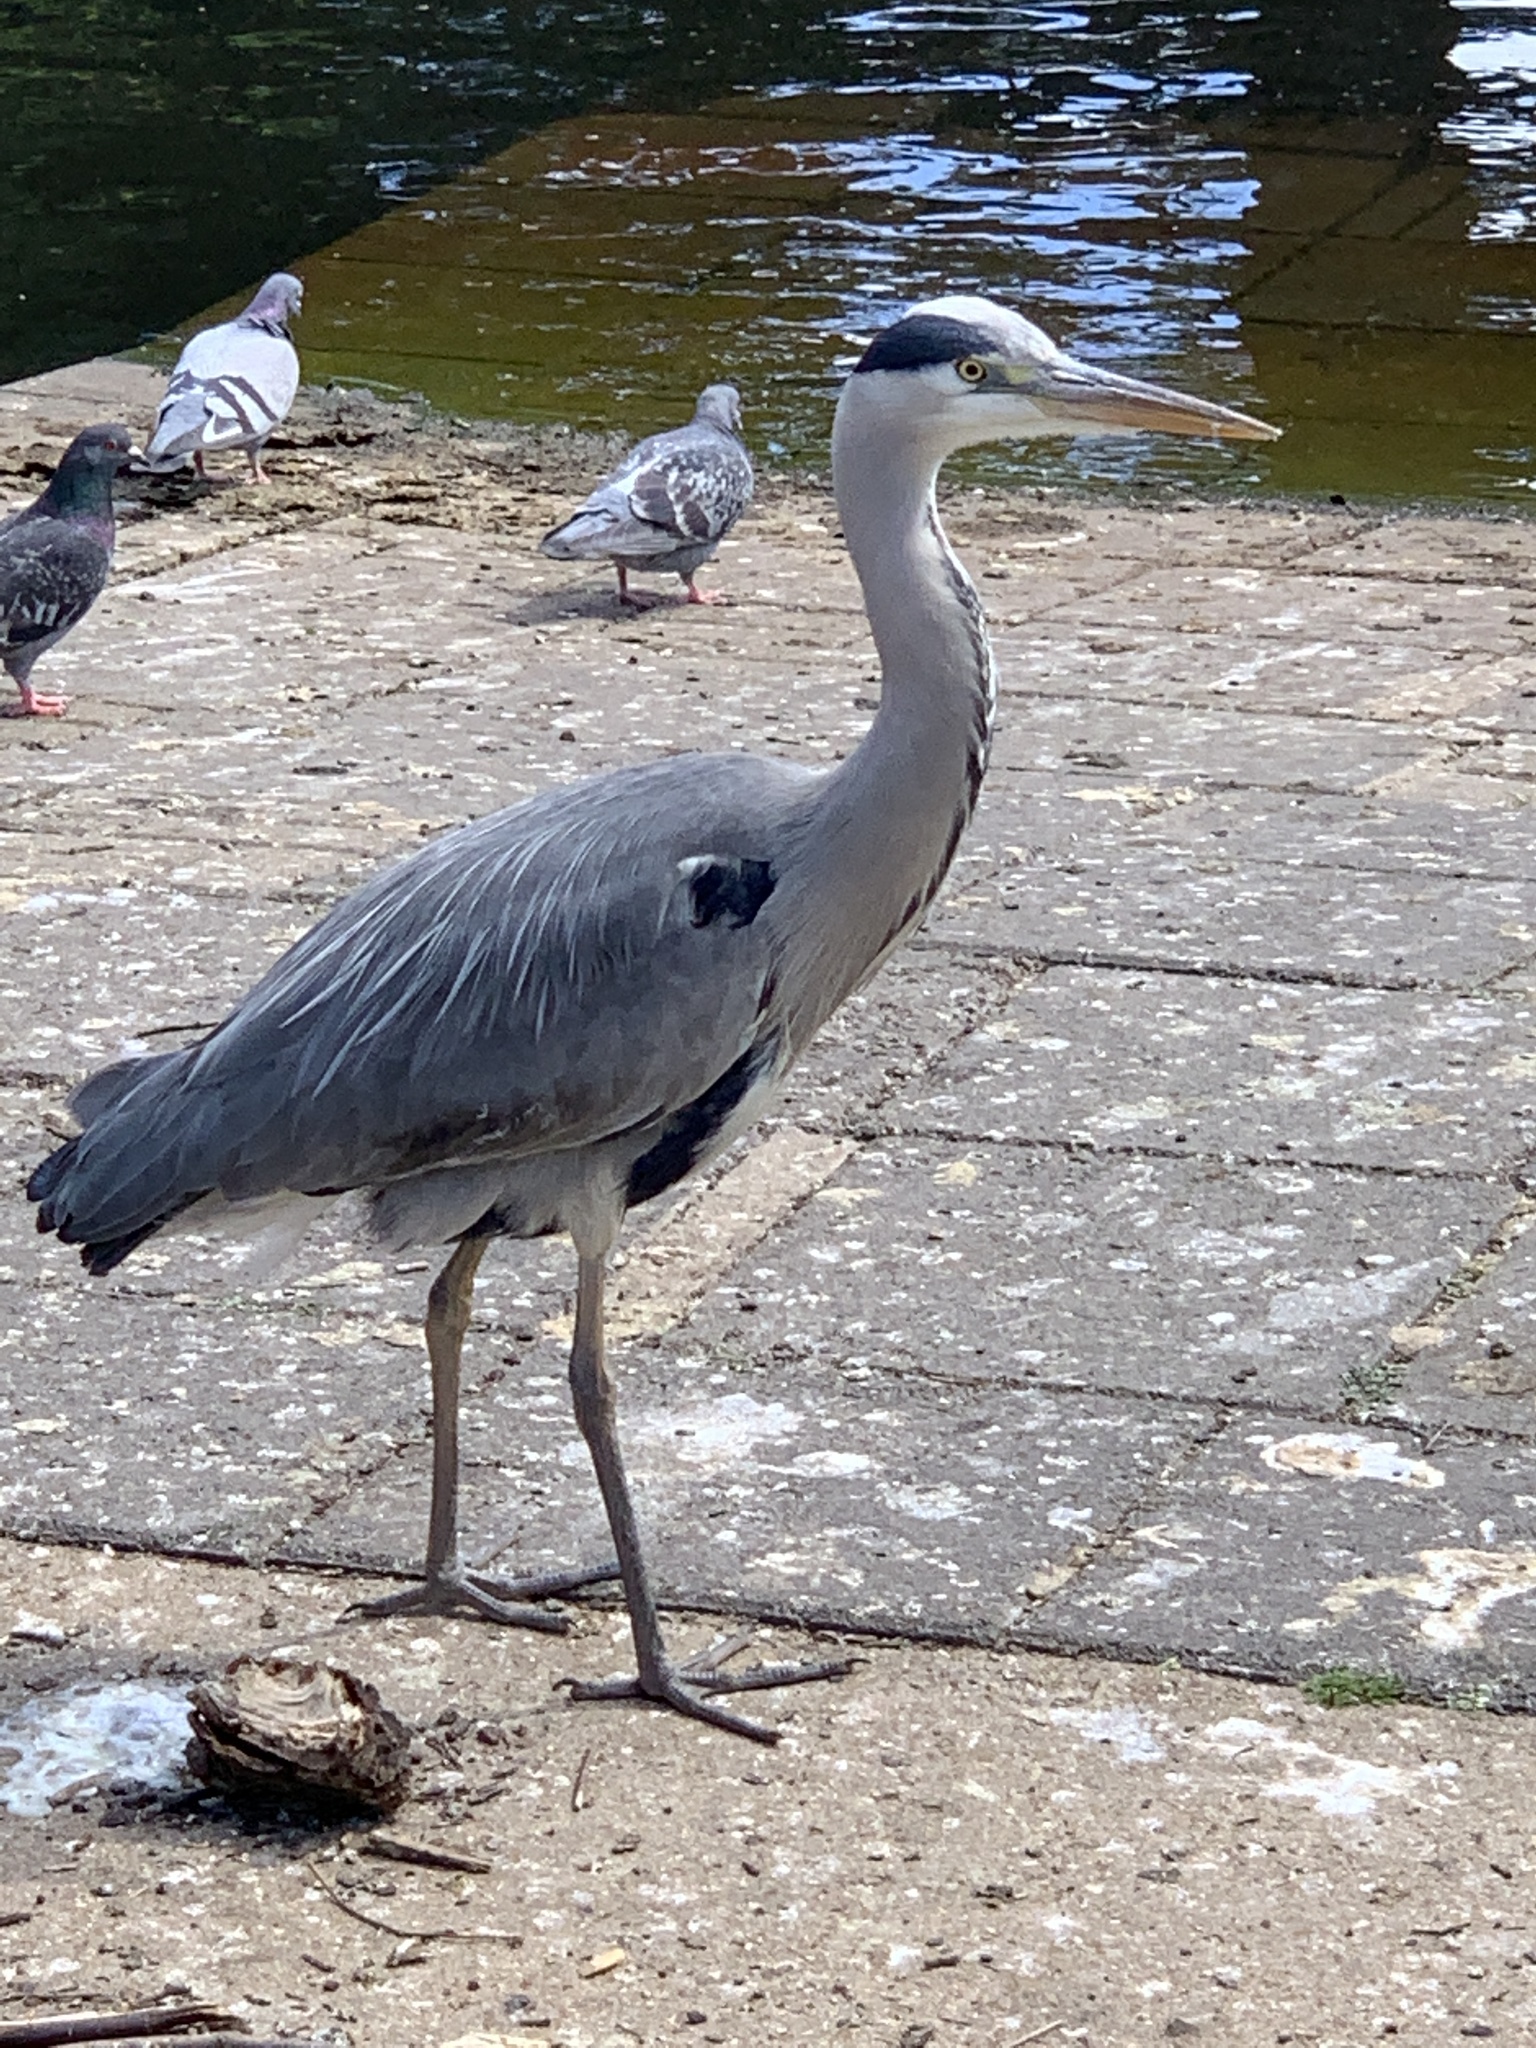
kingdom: Animalia
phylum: Chordata
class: Aves
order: Pelecaniformes
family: Ardeidae
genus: Ardea
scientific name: Ardea cinerea
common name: Grey heron
